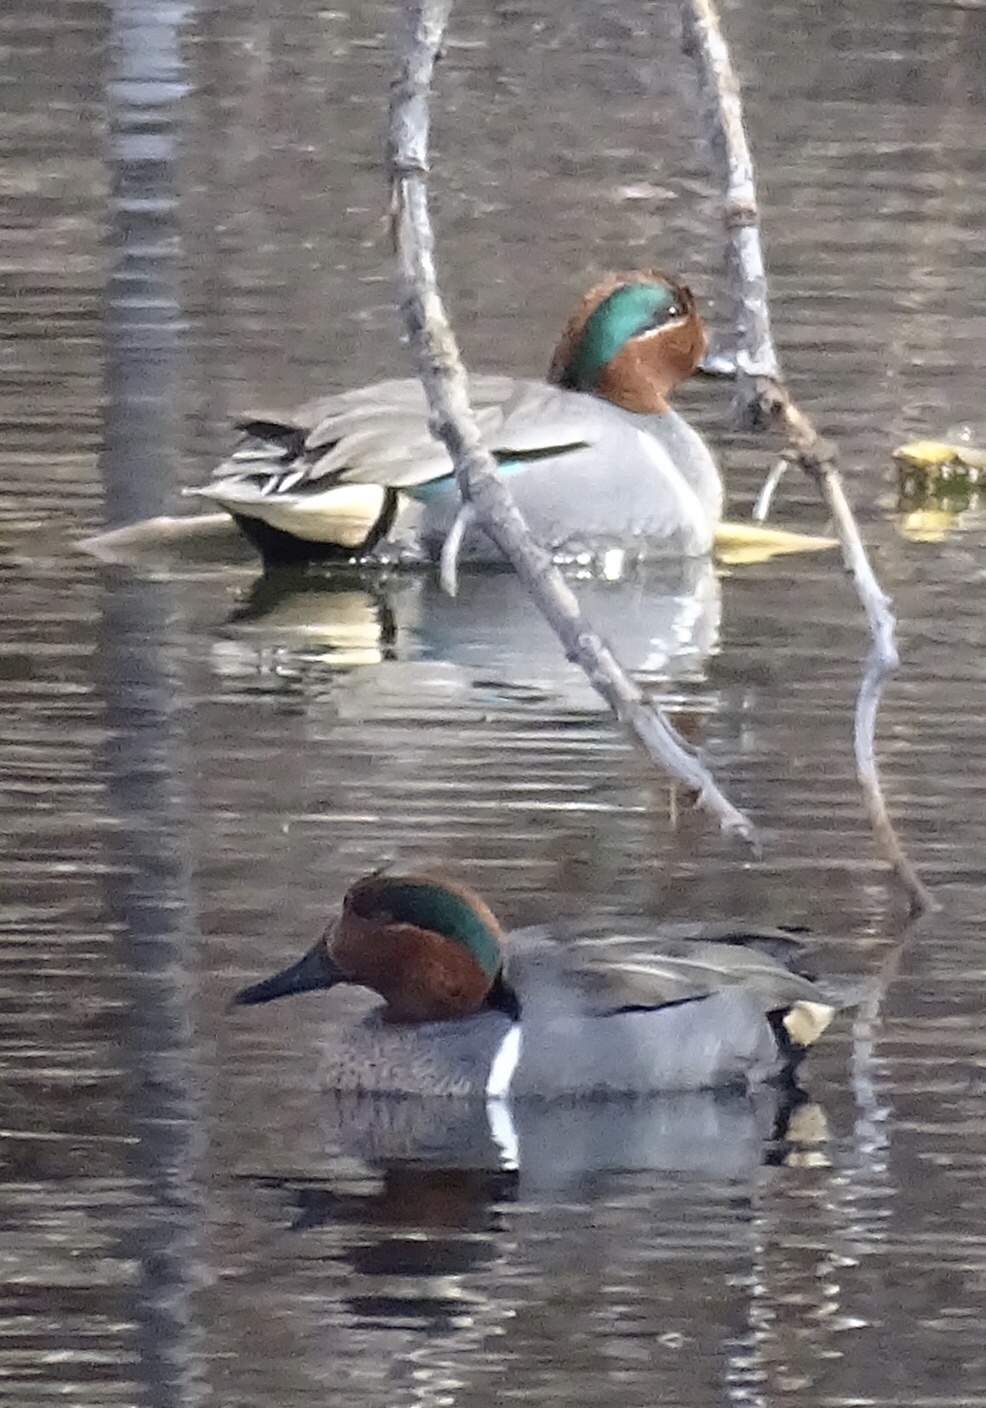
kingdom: Animalia
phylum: Chordata
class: Aves
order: Anseriformes
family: Anatidae
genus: Anas
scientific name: Anas crecca
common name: Eurasian teal
